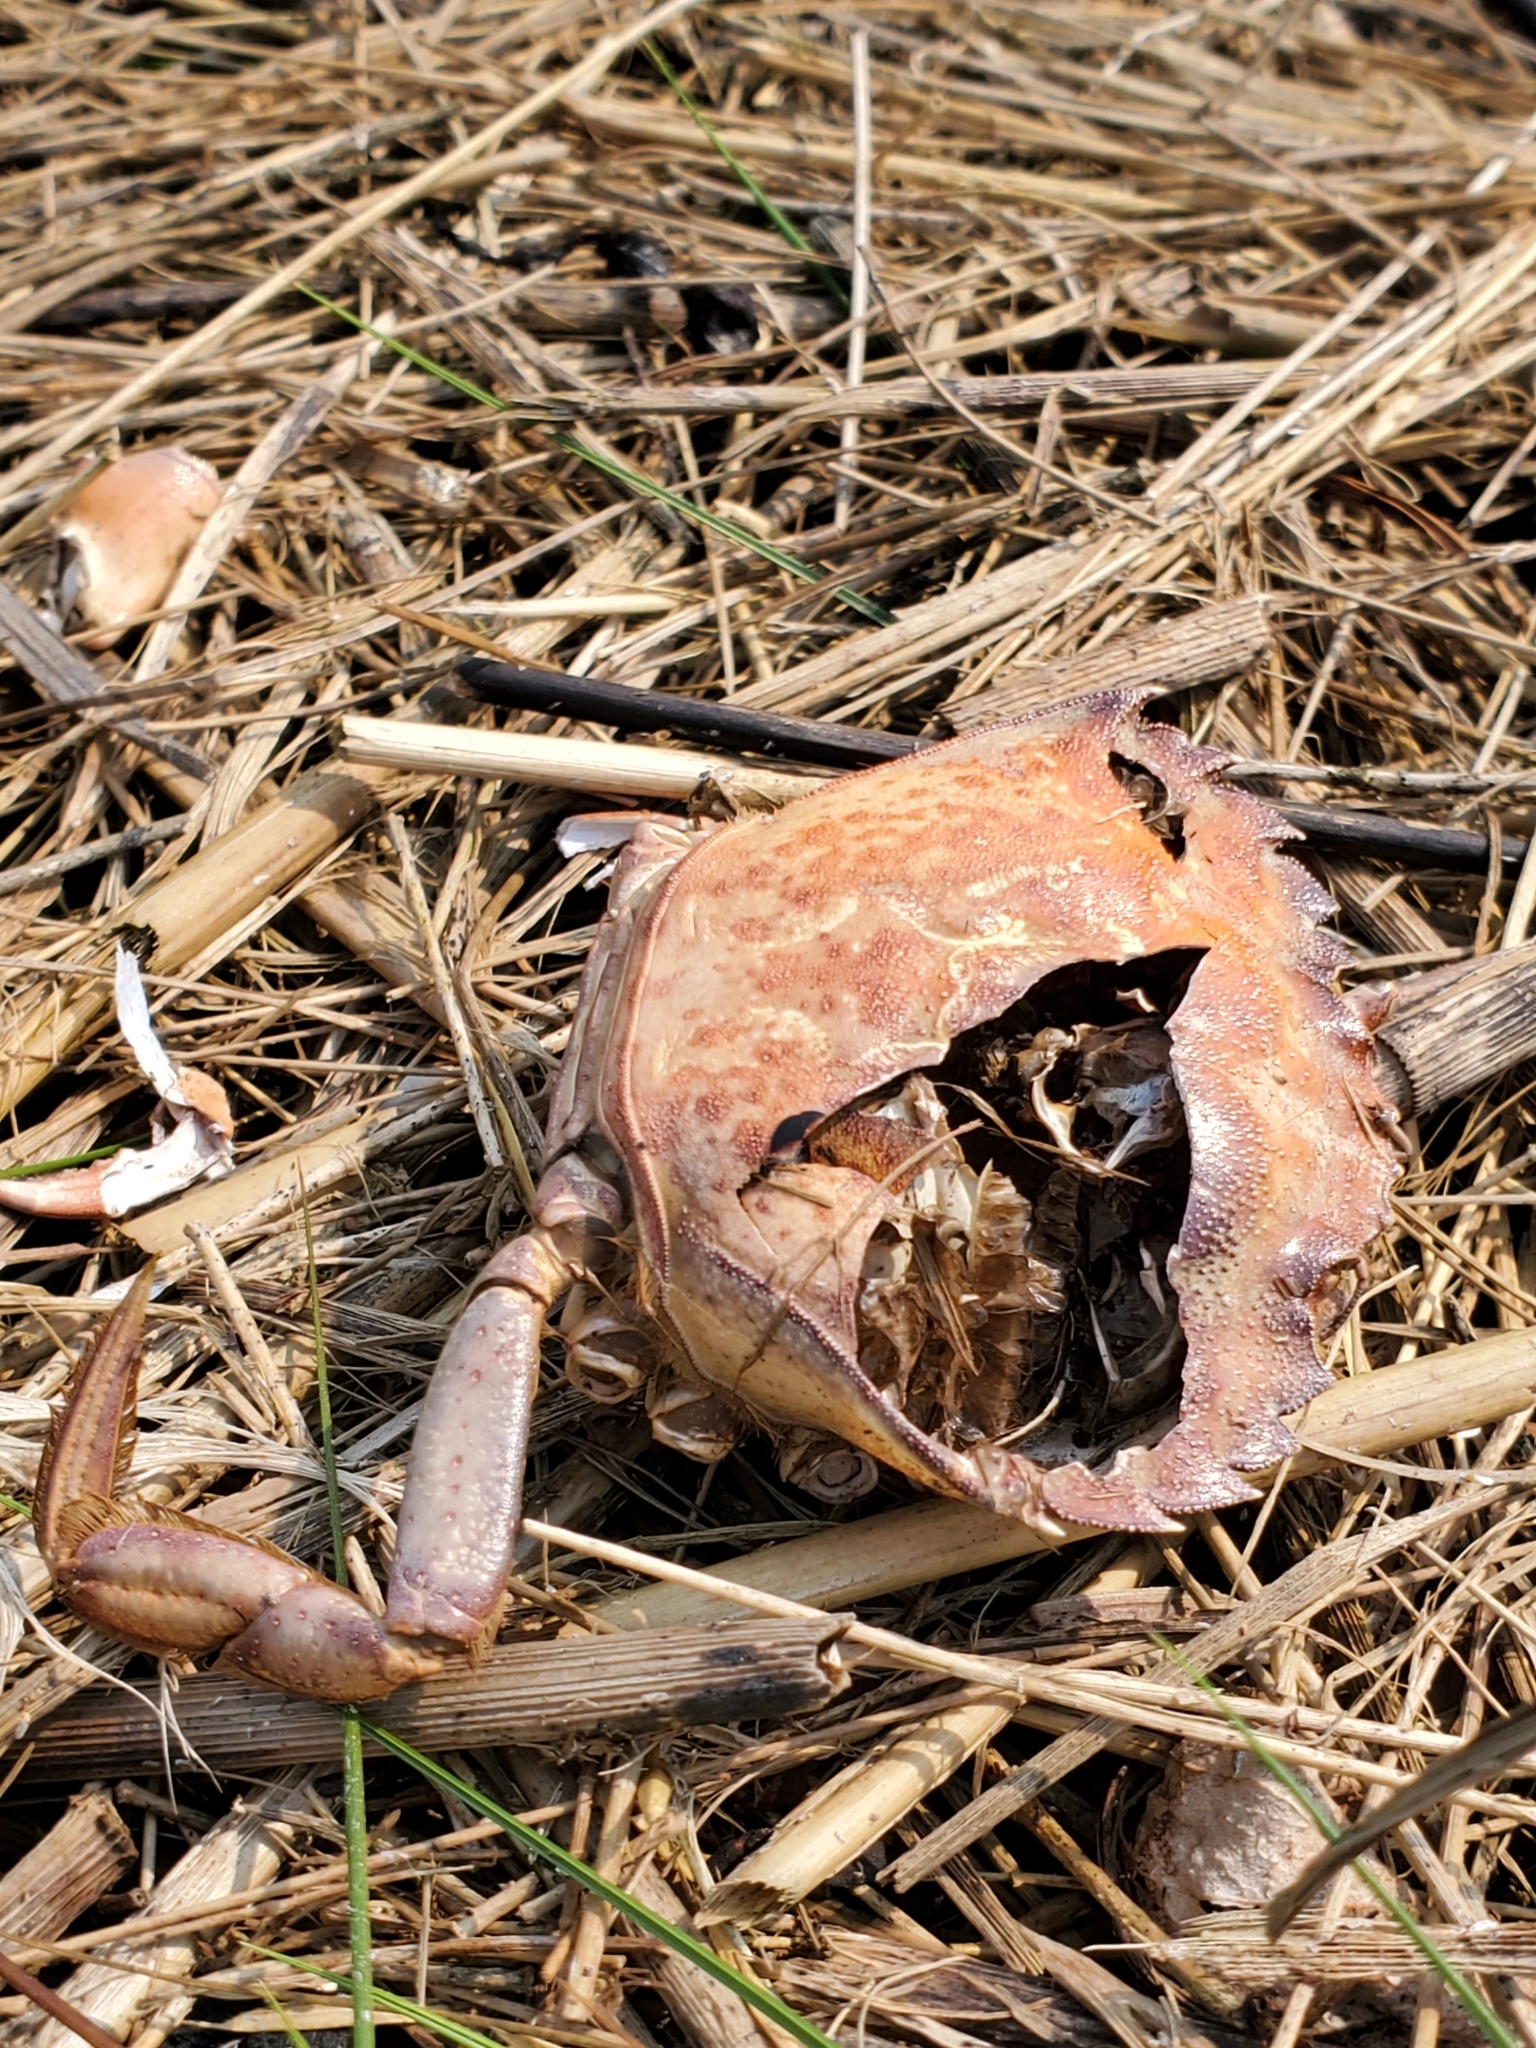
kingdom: Animalia
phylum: Arthropoda
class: Malacostraca
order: Decapoda
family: Carcinidae
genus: Carcinus
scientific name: Carcinus maenas
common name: European green crab
